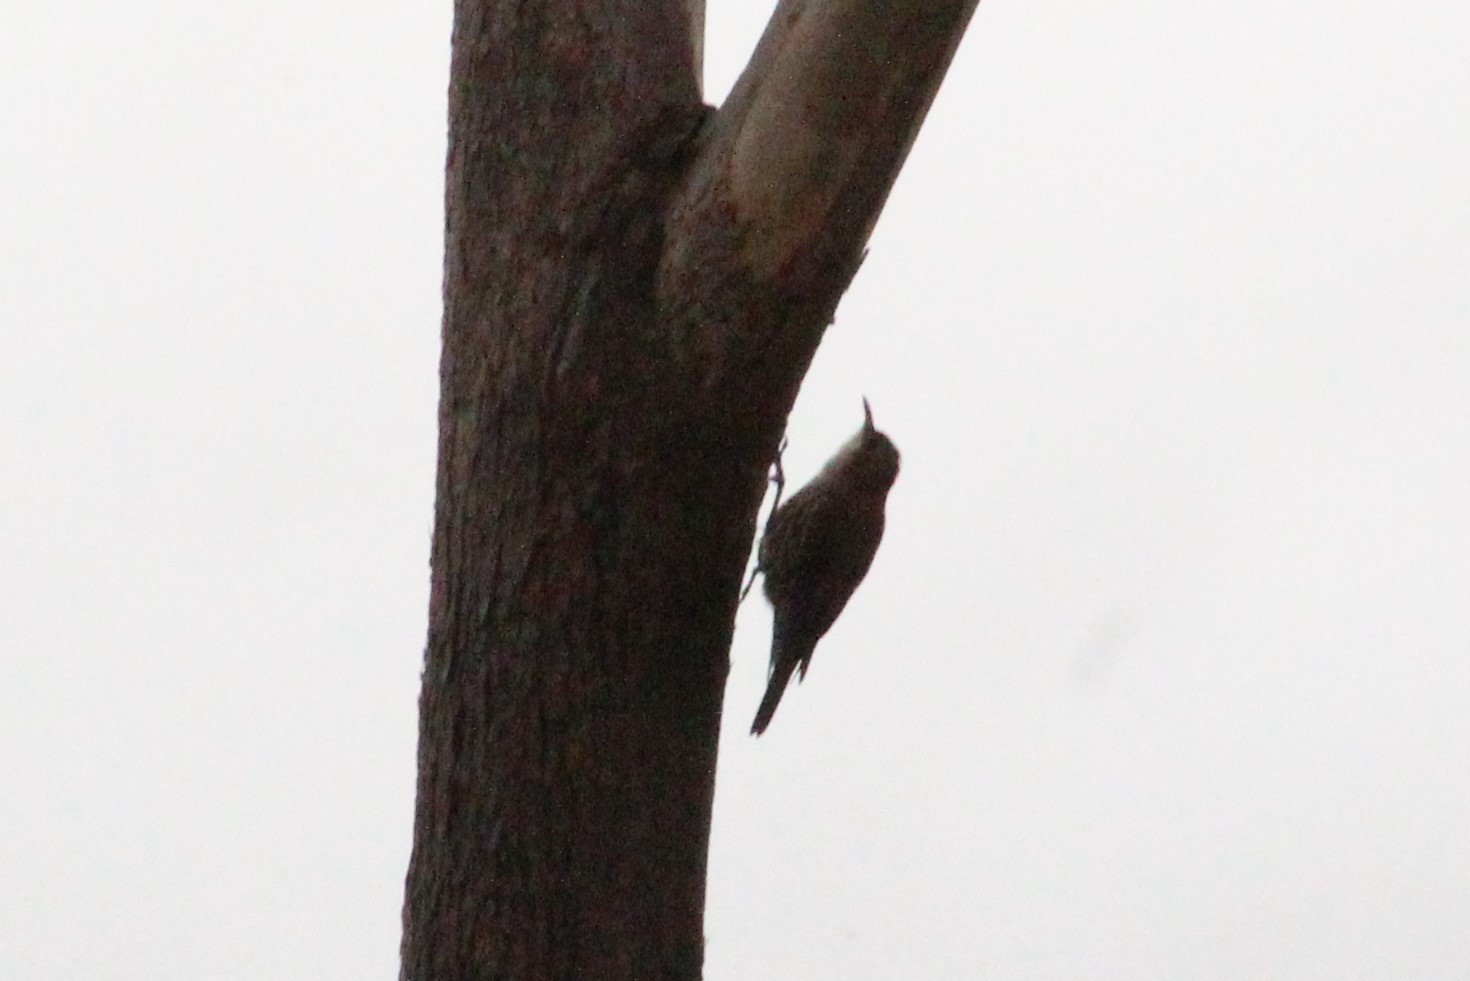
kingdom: Animalia
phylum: Chordata
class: Aves
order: Passeriformes
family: Climacteridae
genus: Cormobates
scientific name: Cormobates leucophaea
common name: White-throated treecreeper
